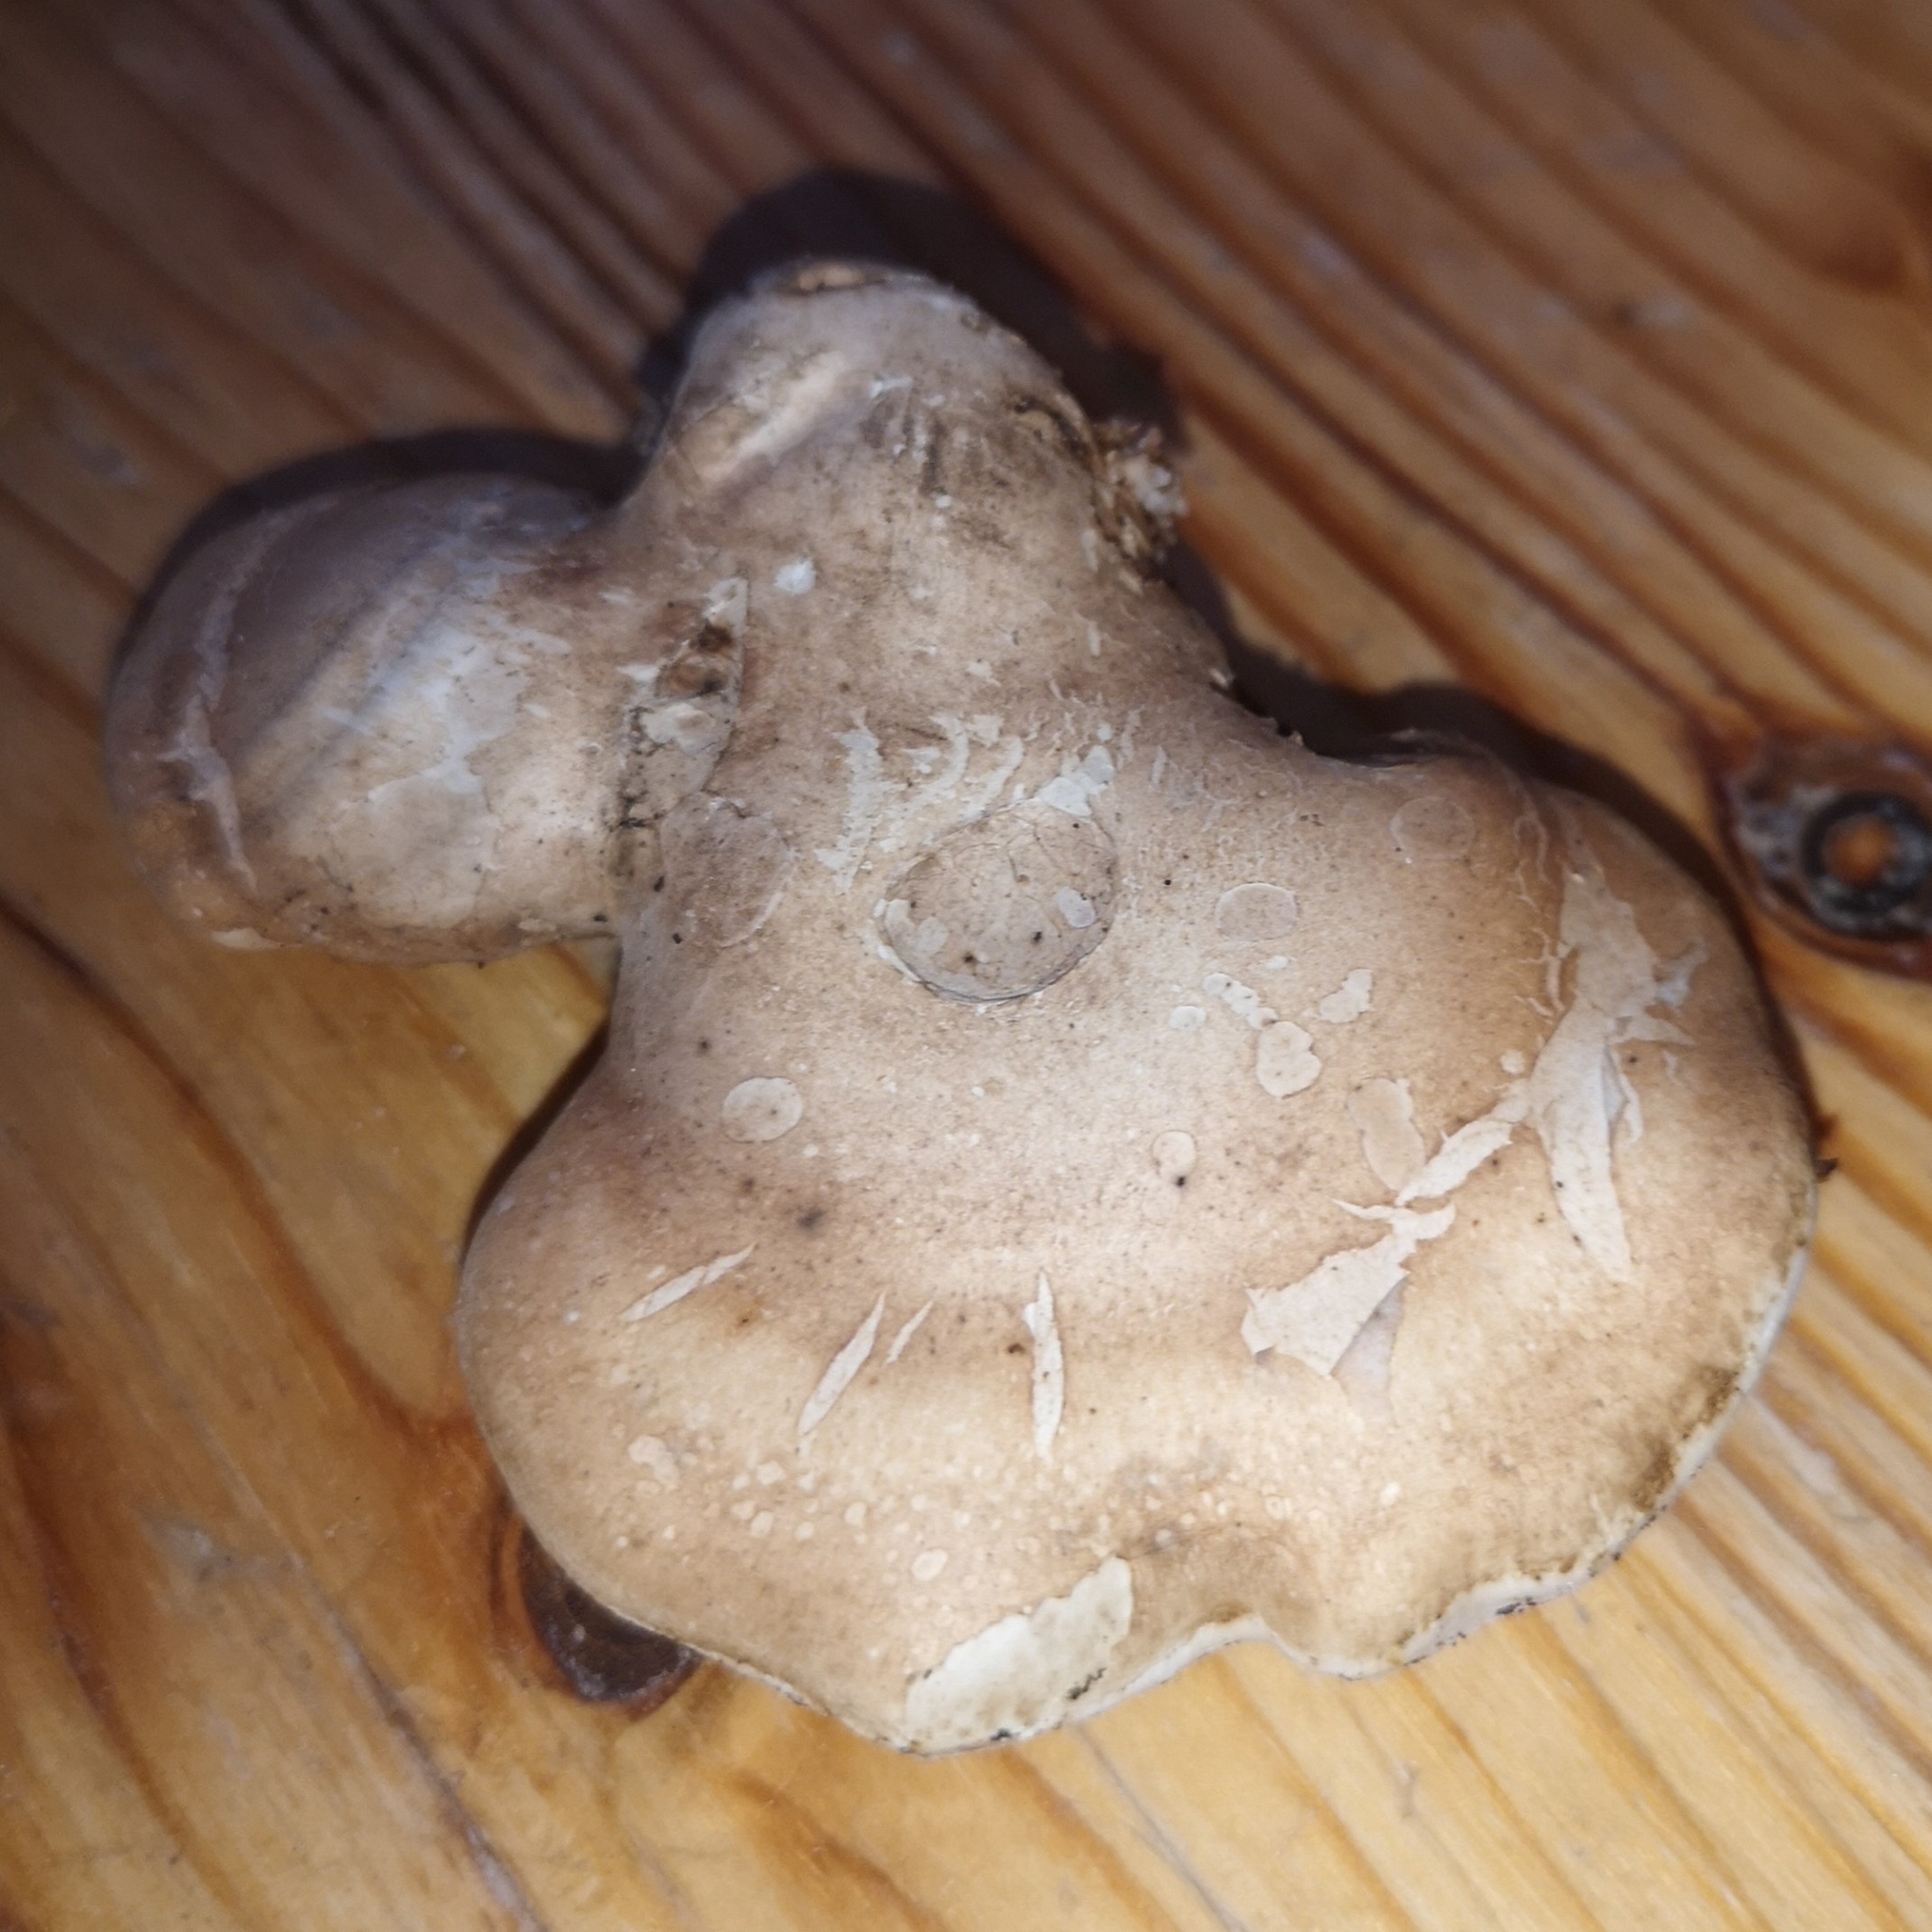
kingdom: Fungi
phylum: Basidiomycota
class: Agaricomycetes
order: Polyporales
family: Fomitopsidaceae
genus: Fomitopsis
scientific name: Fomitopsis betulina
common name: Birch polypore
